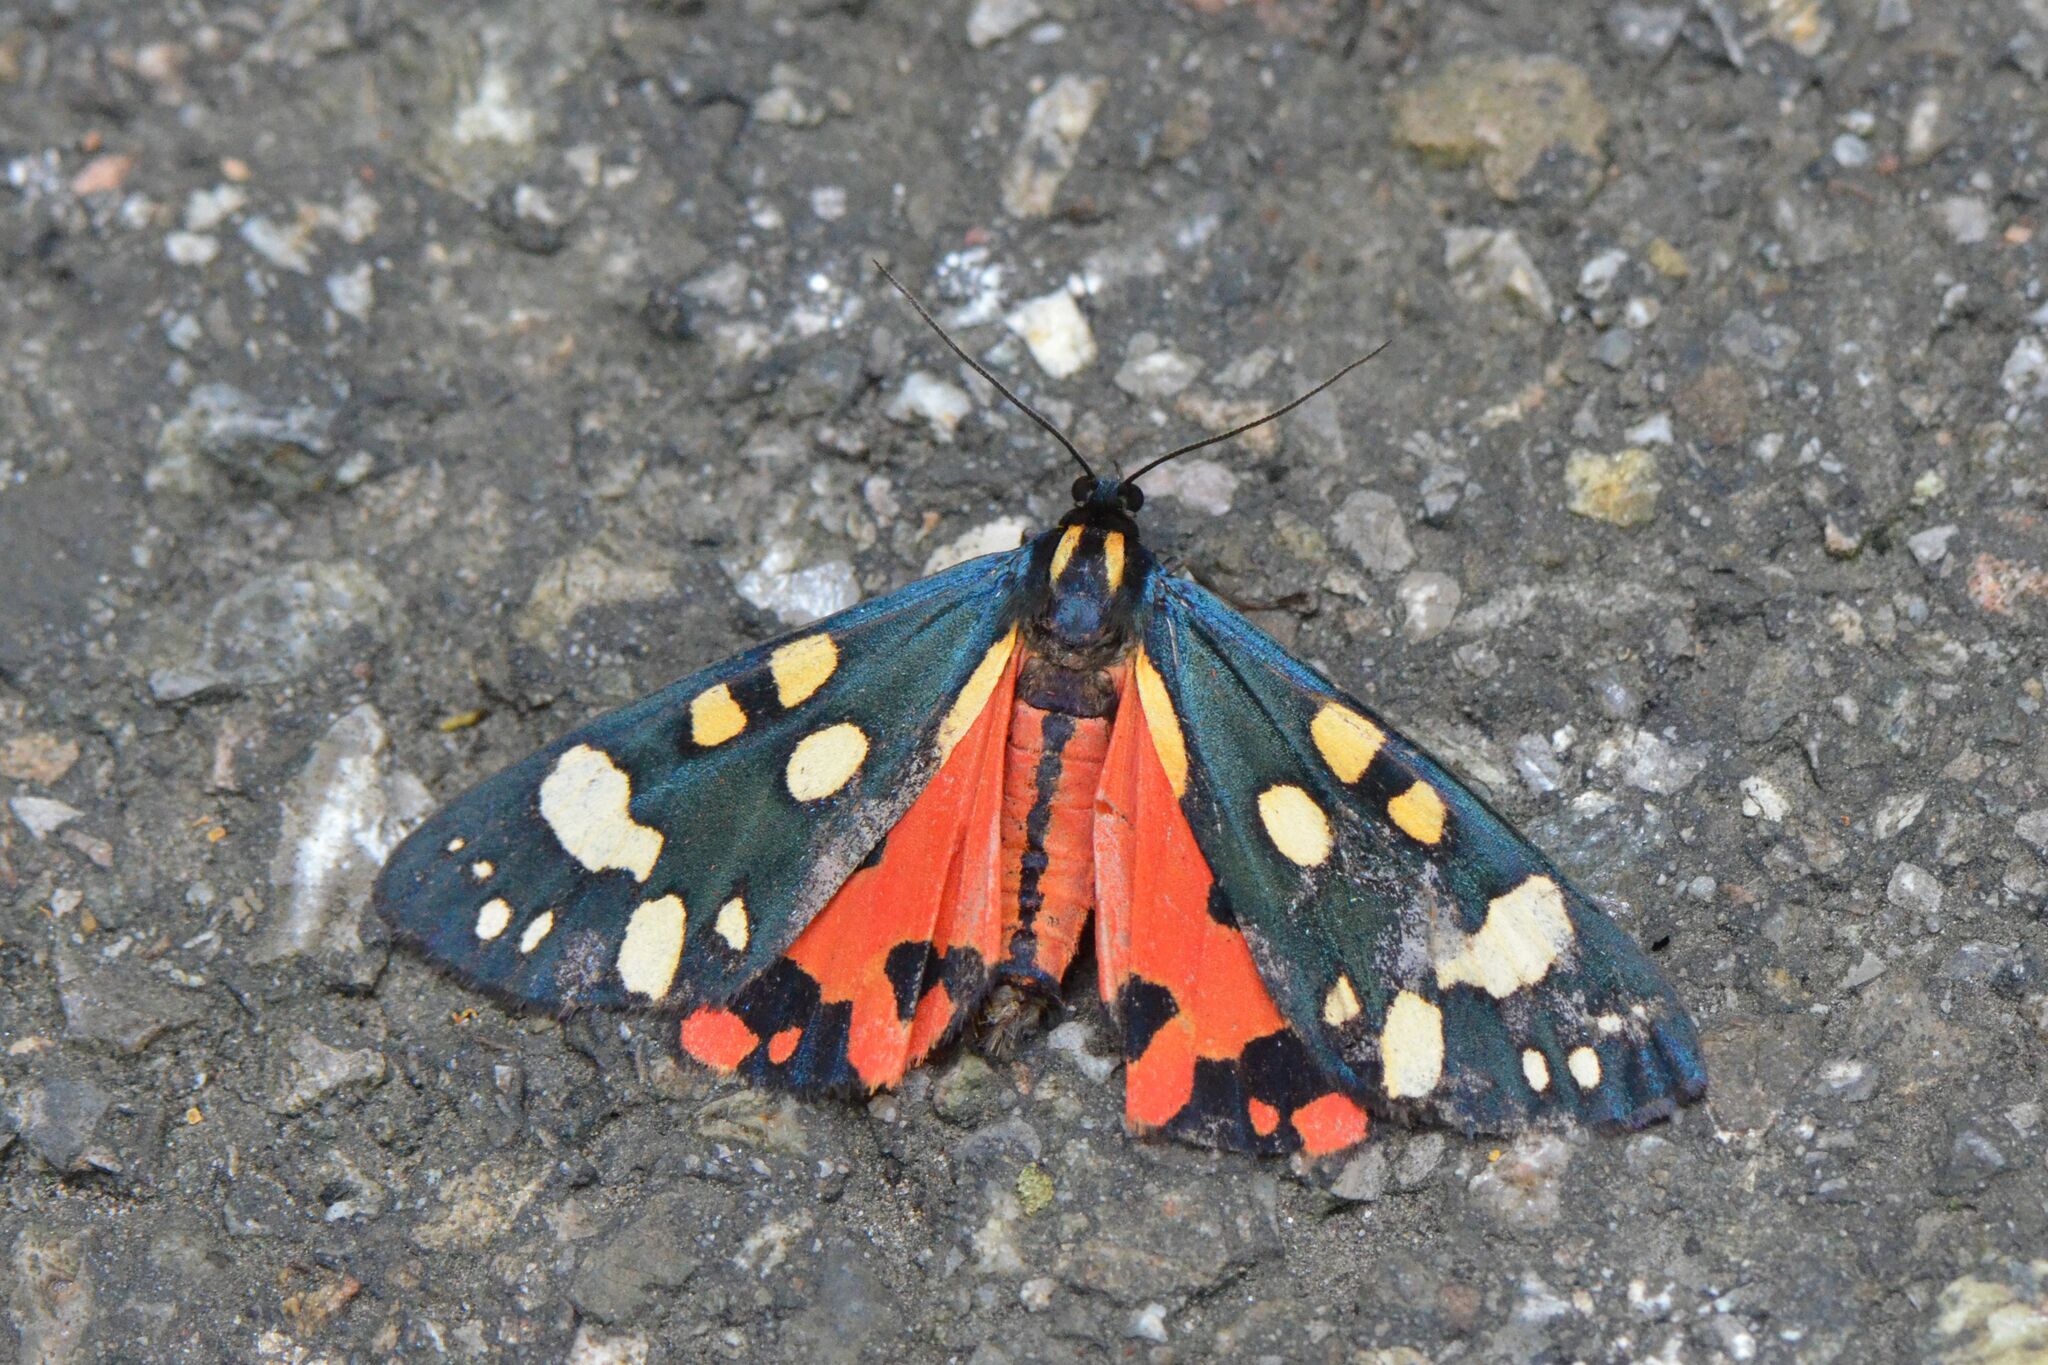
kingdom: Animalia
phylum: Arthropoda
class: Insecta
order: Lepidoptera
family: Erebidae
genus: Callimorpha
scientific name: Callimorpha dominula
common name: Scarlet tiger
